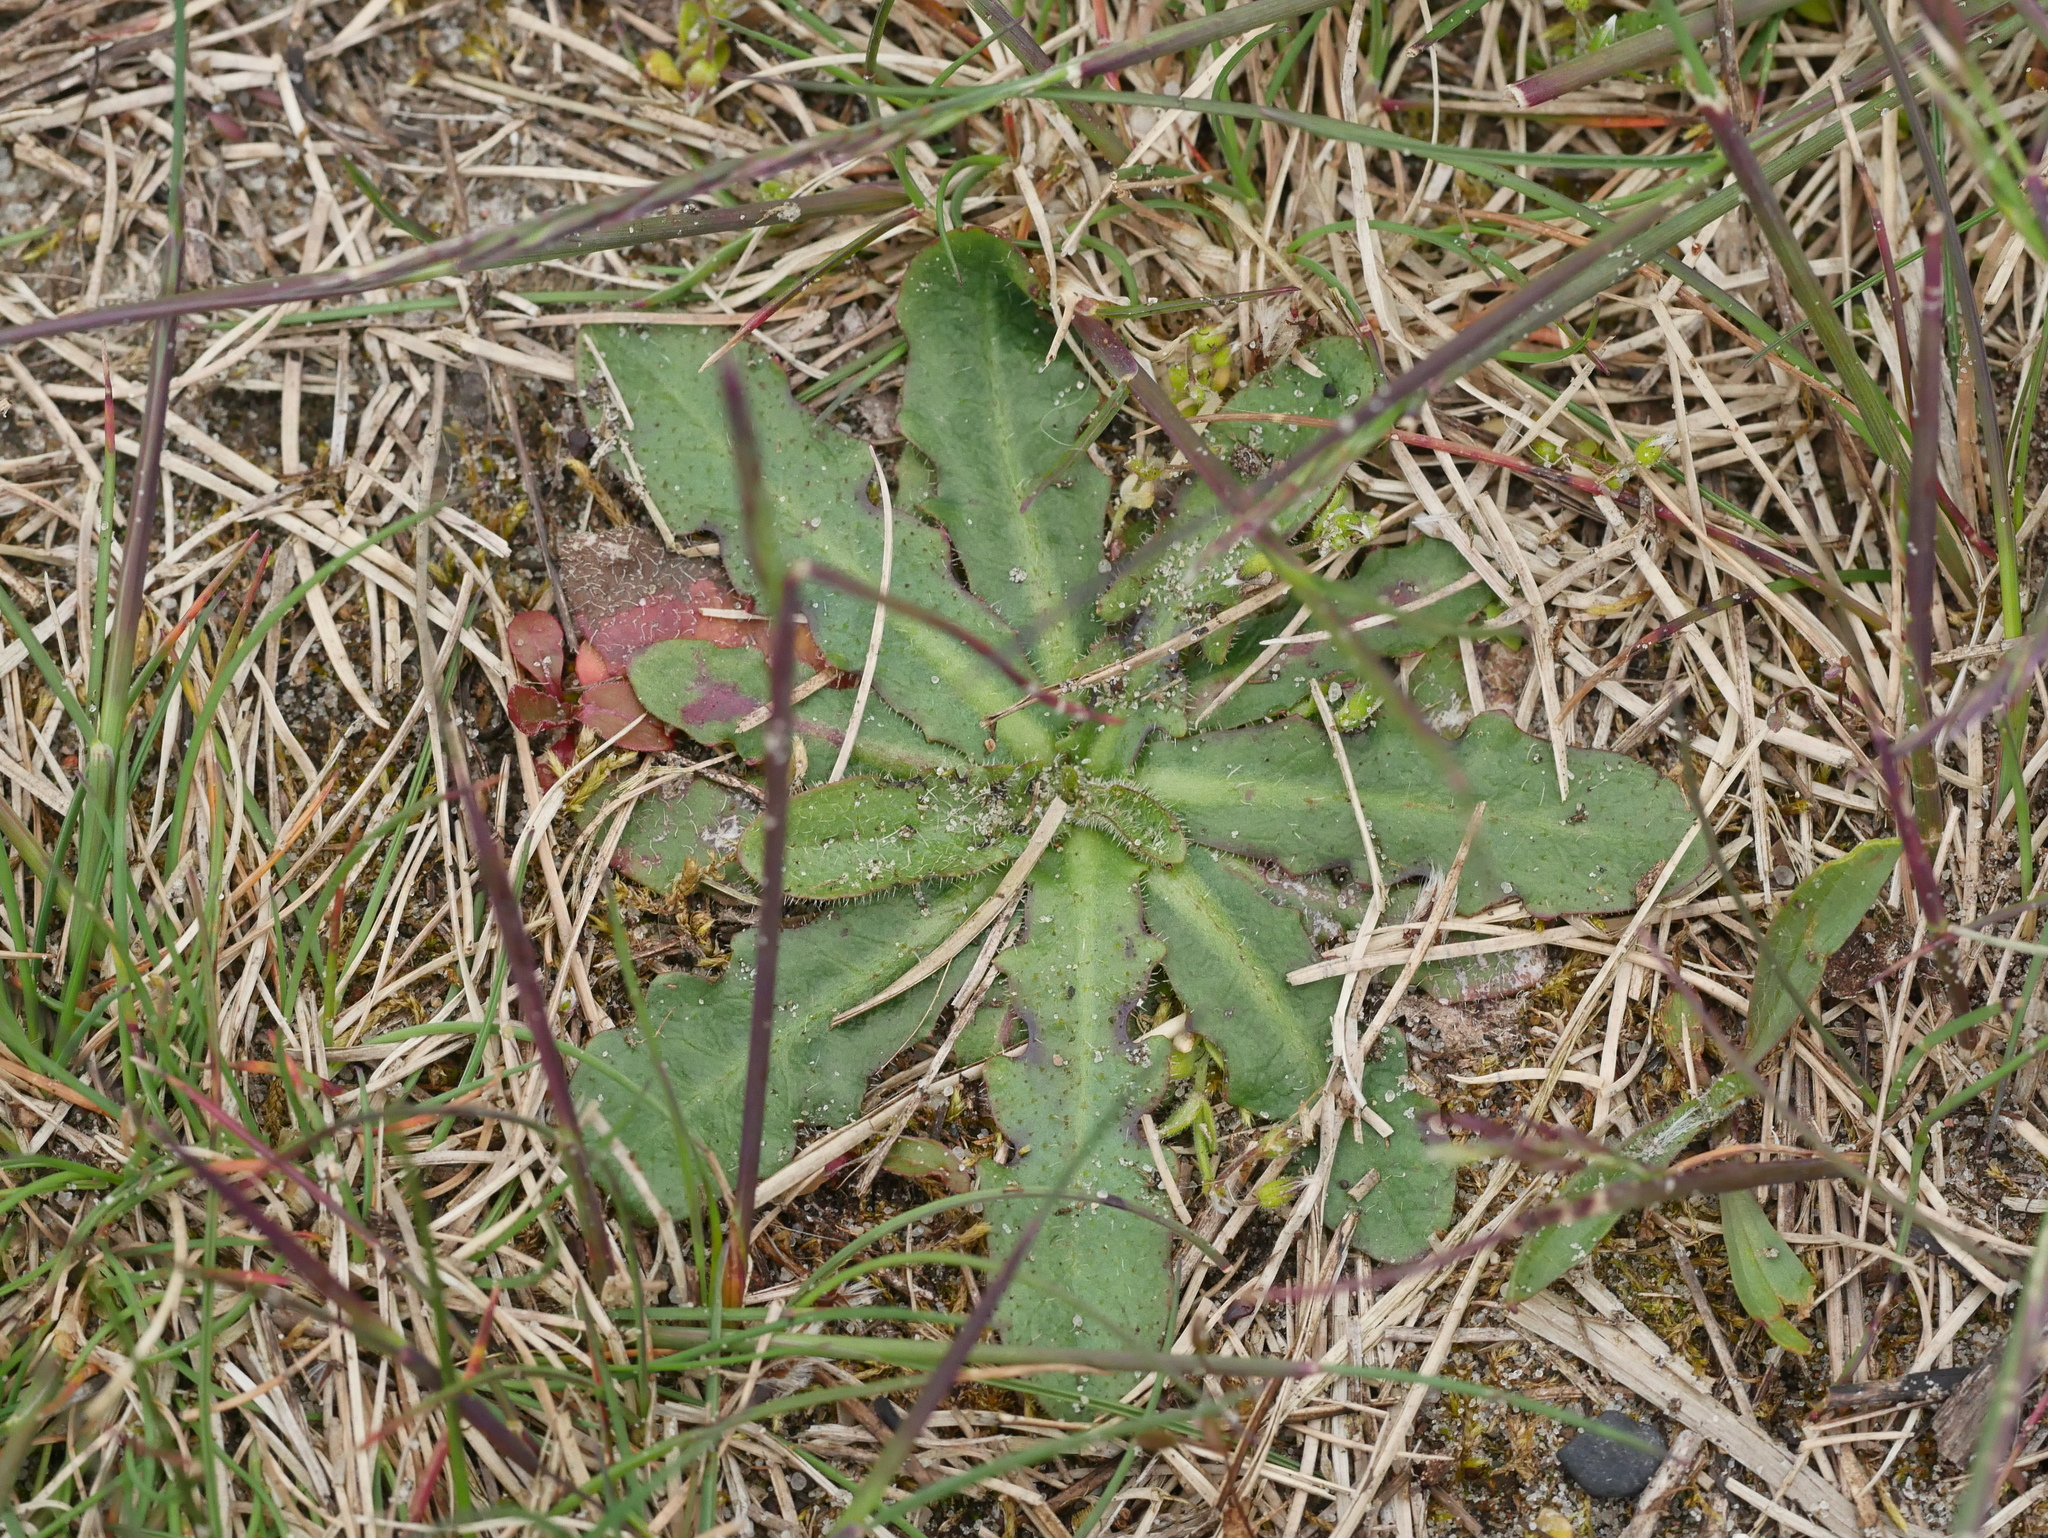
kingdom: Plantae
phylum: Tracheophyta
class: Magnoliopsida
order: Asterales
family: Asteraceae
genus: Hypochaeris
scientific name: Hypochaeris radicata
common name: Flatweed
